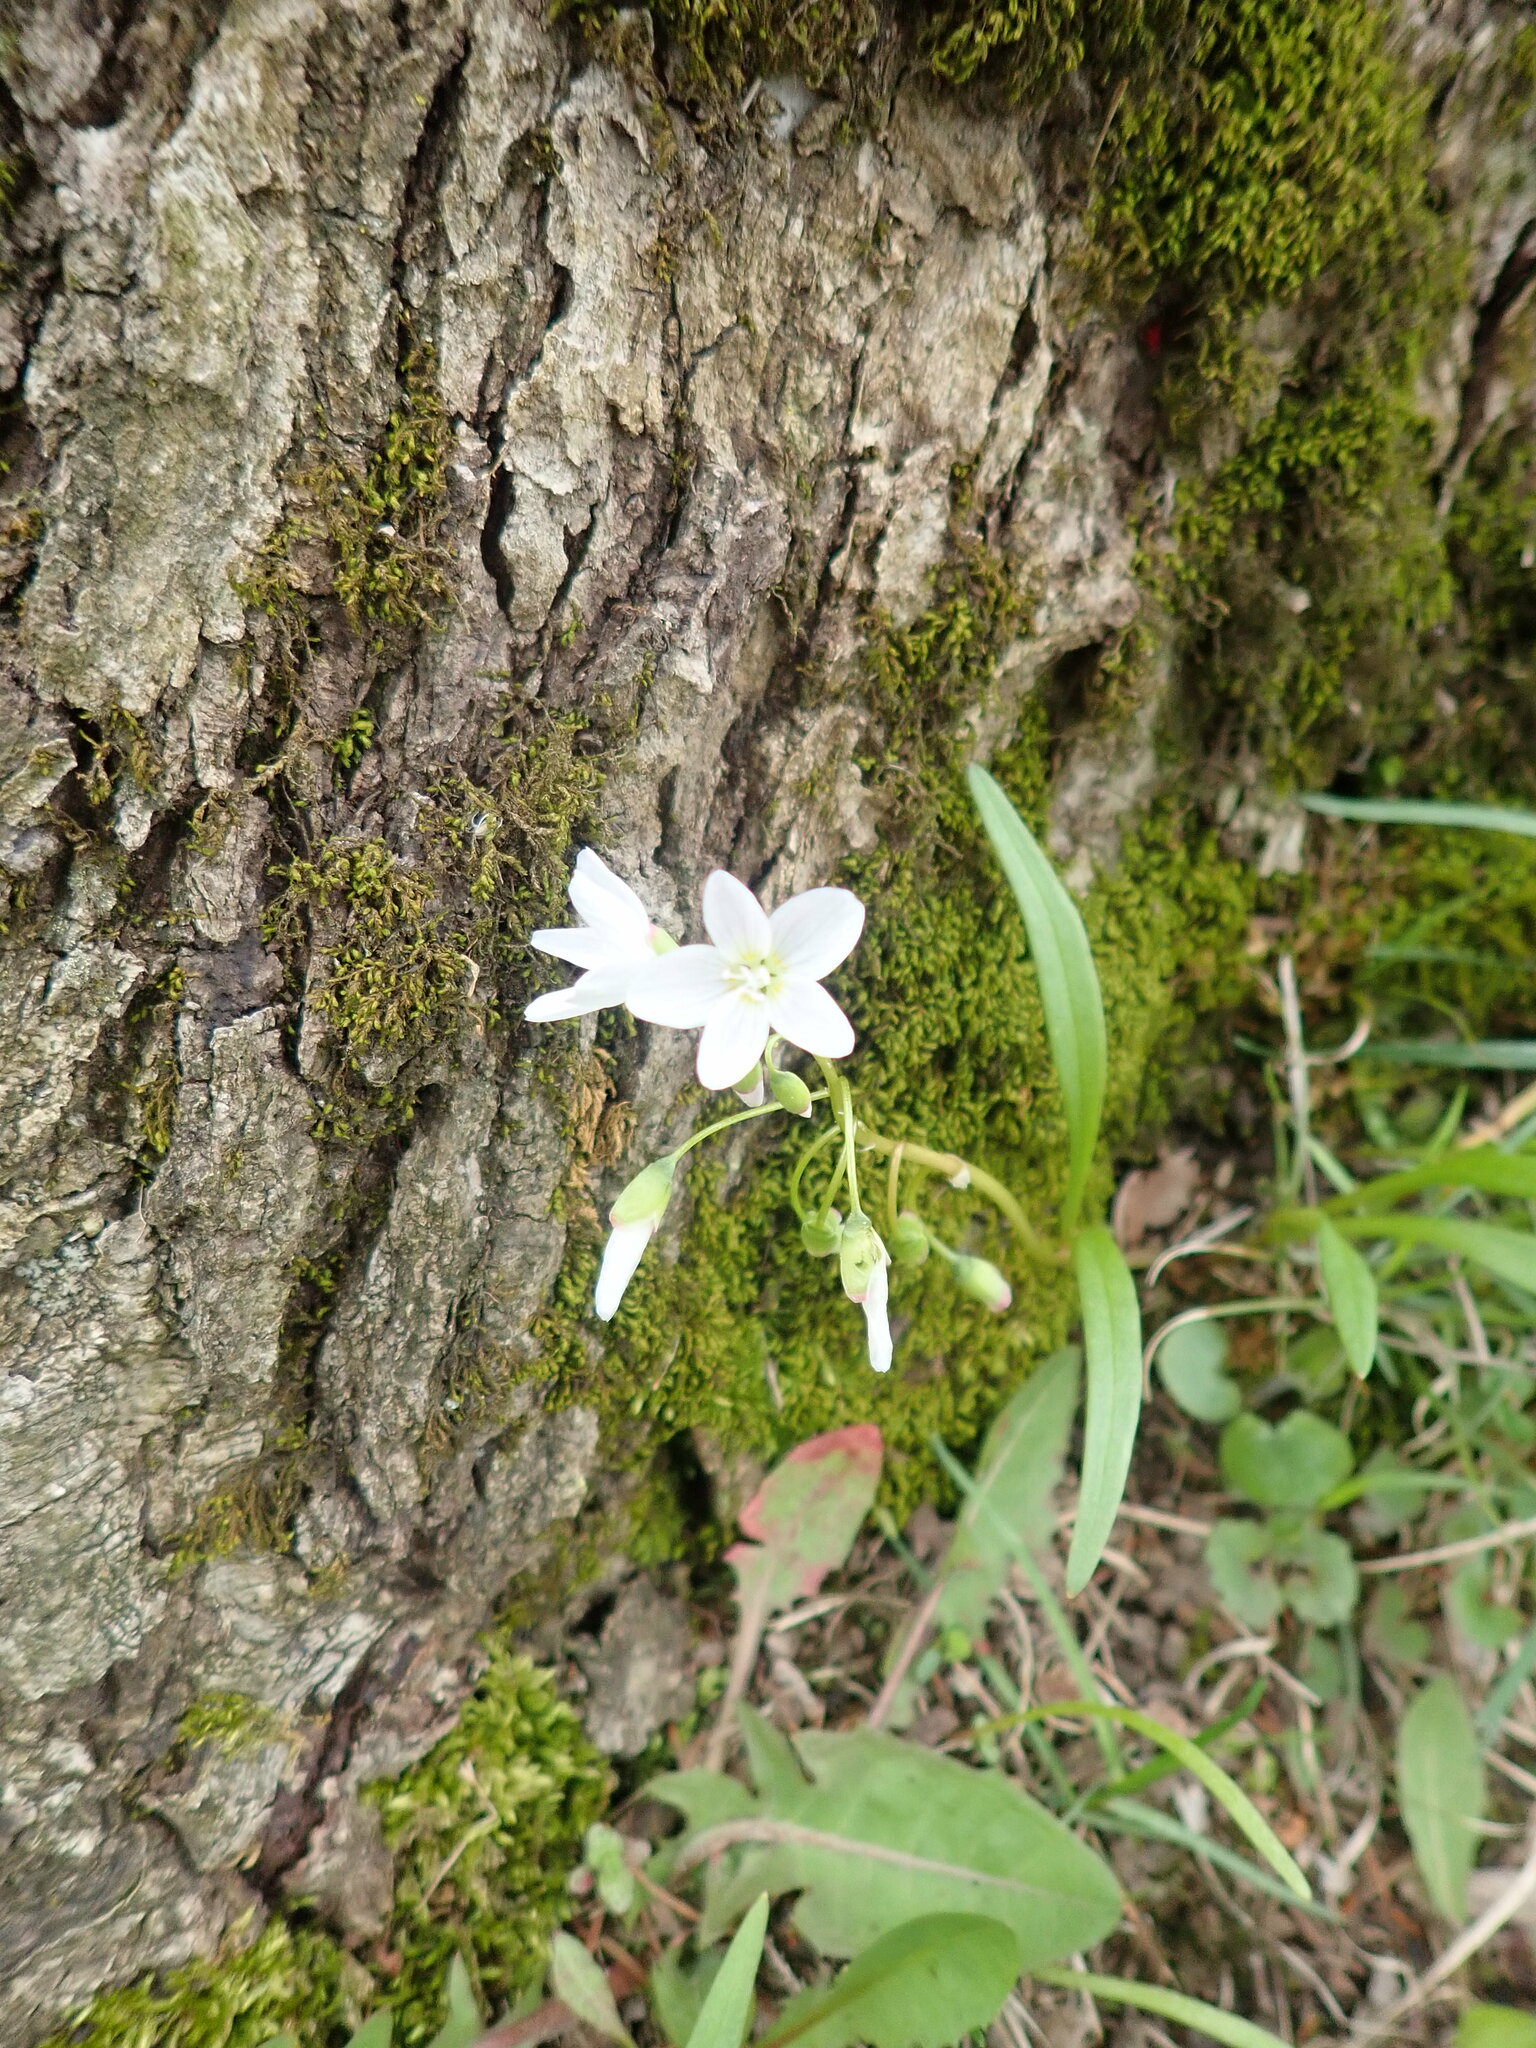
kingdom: Plantae
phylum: Tracheophyta
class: Magnoliopsida
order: Caryophyllales
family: Montiaceae
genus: Claytonia
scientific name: Claytonia virginica
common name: Virginia springbeauty
